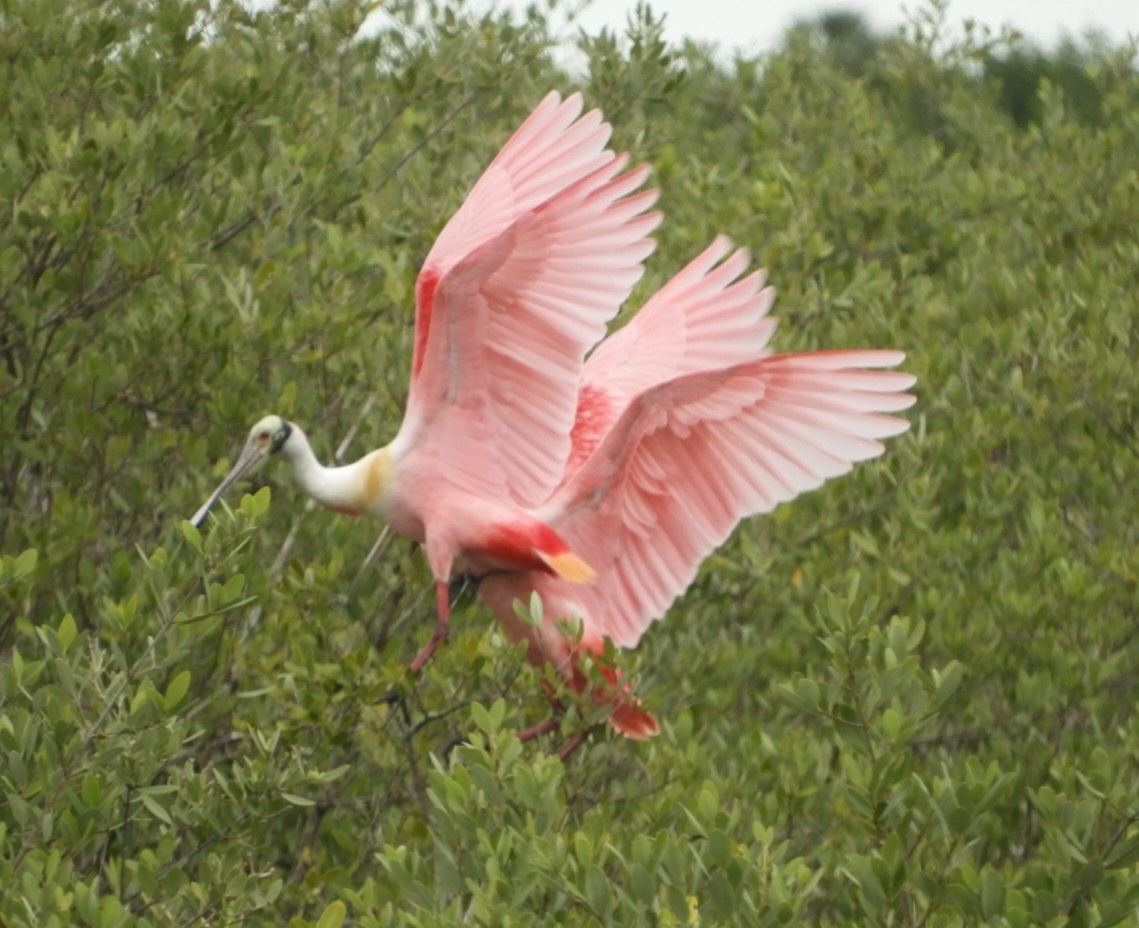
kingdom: Animalia
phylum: Chordata
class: Aves
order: Pelecaniformes
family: Threskiornithidae
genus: Platalea
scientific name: Platalea ajaja
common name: Roseate spoonbill
